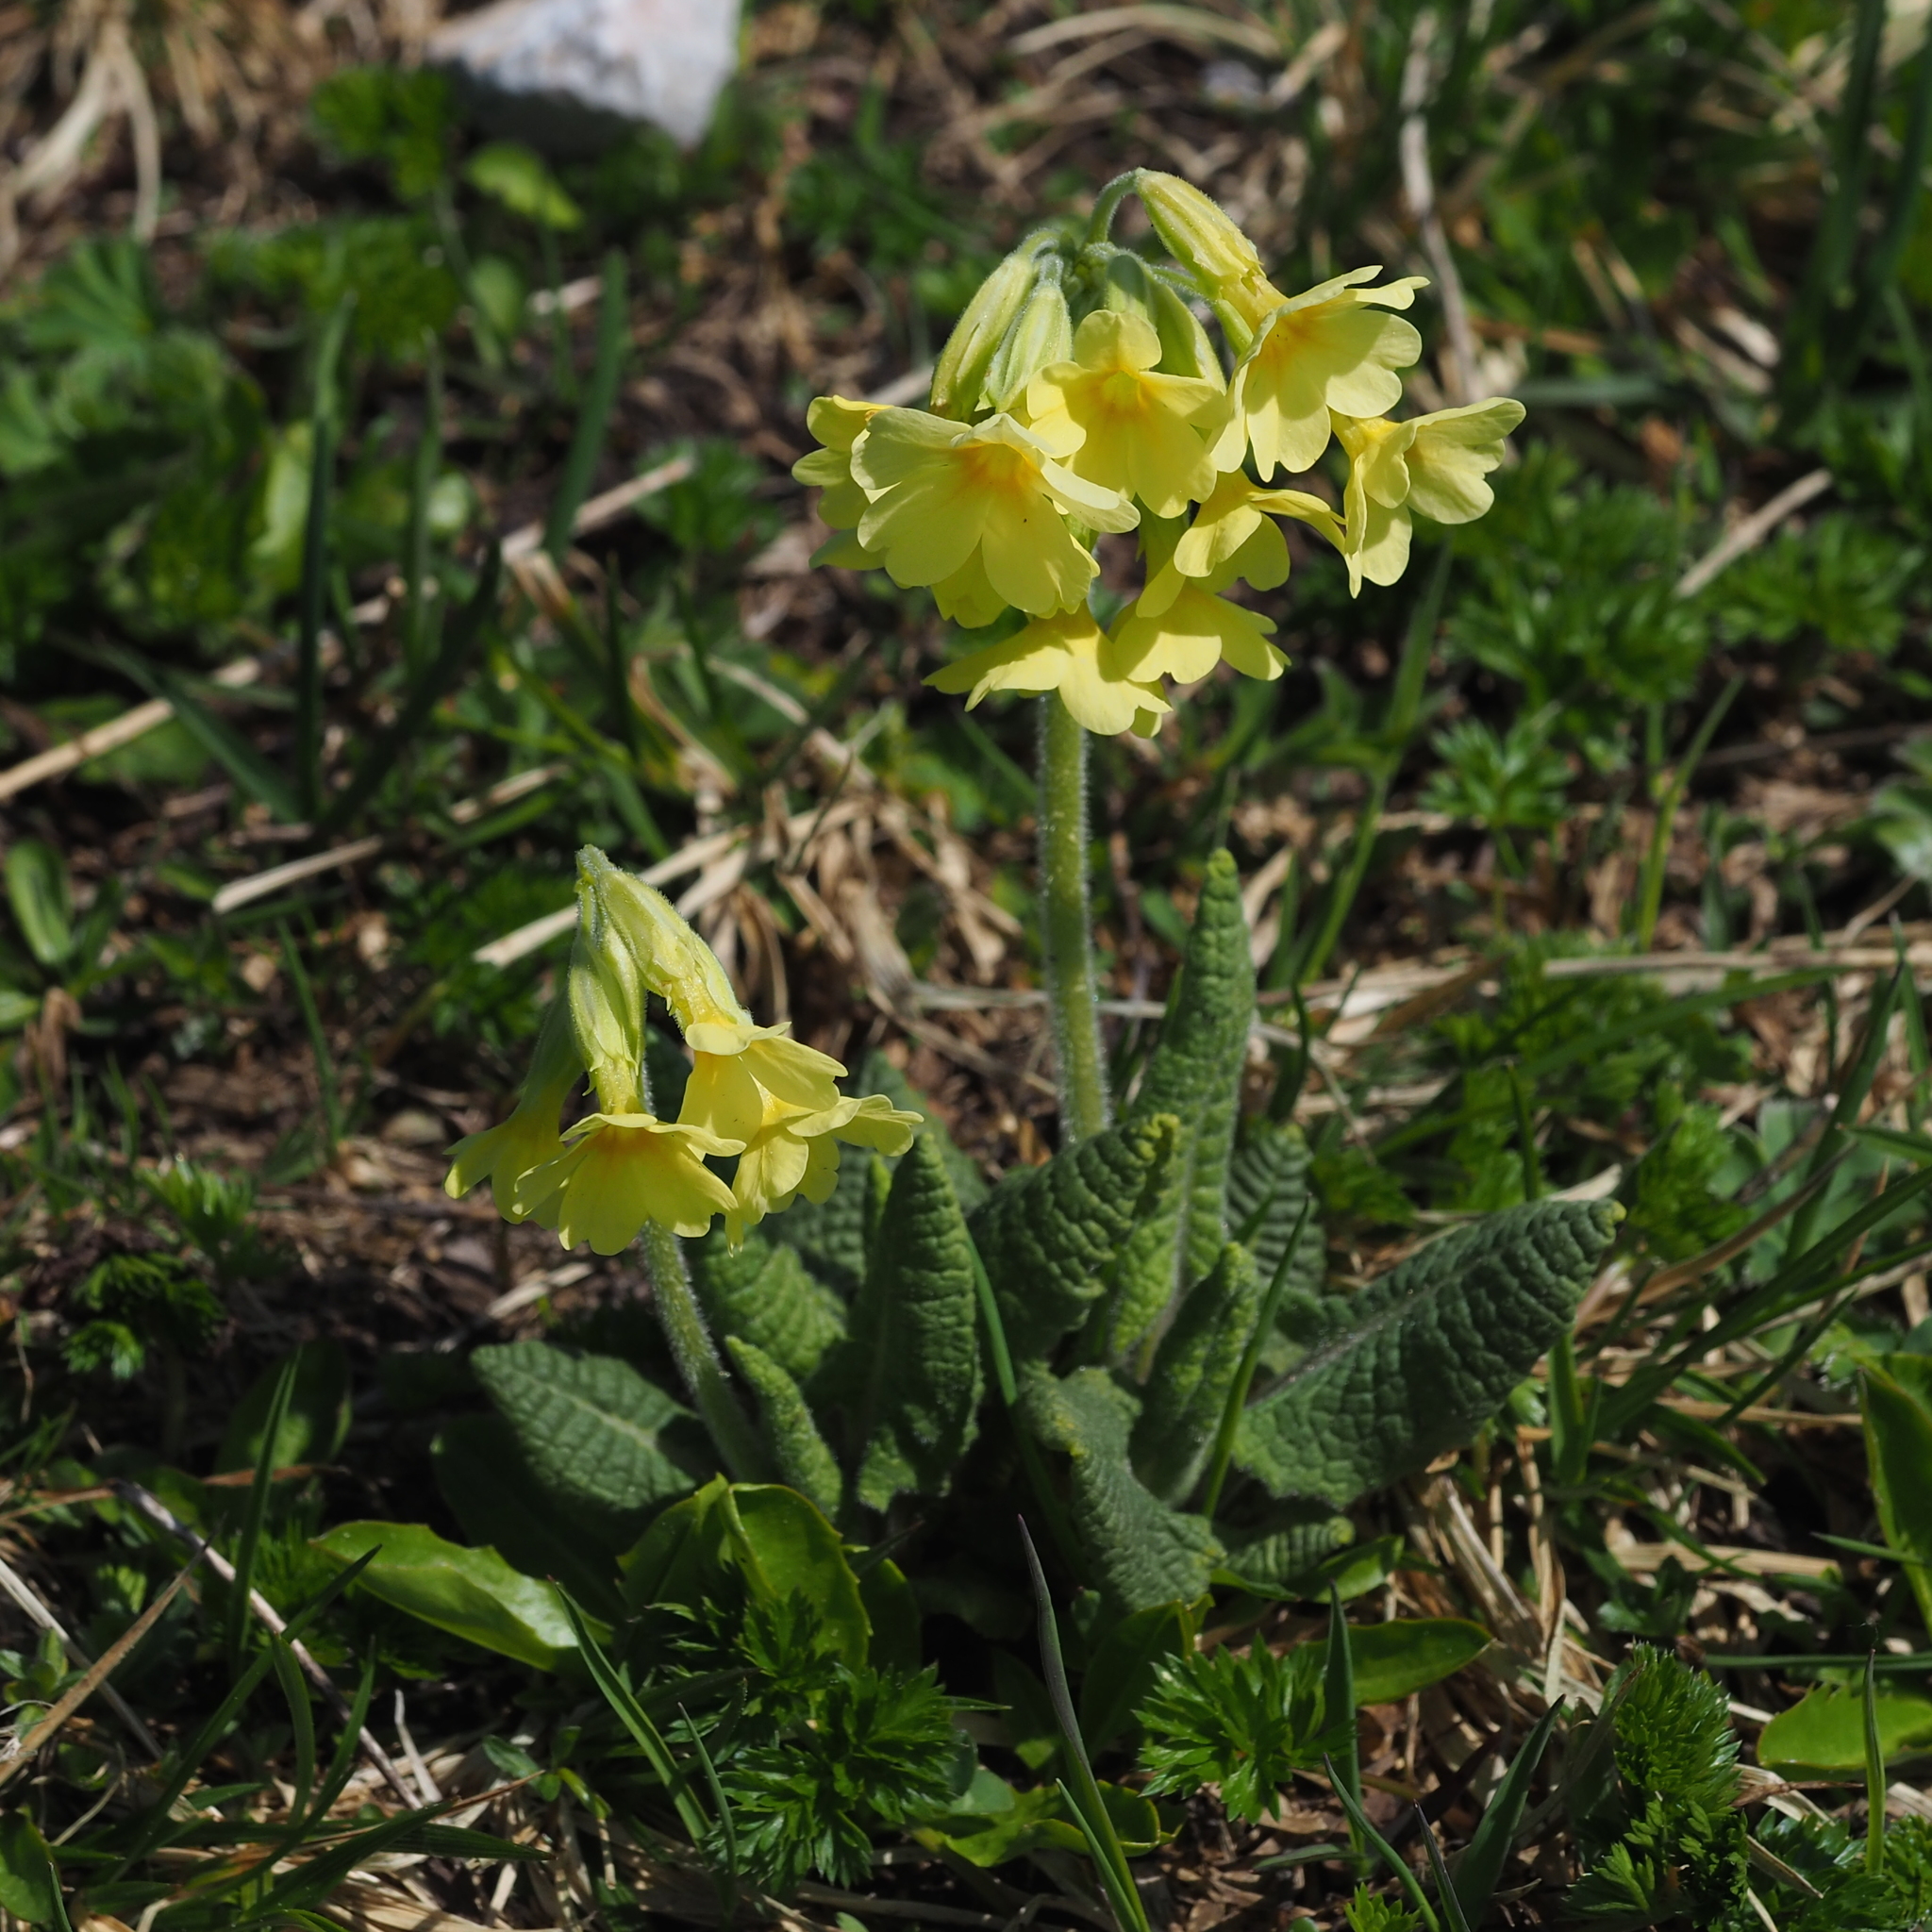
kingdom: Plantae
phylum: Tracheophyta
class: Magnoliopsida
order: Ericales
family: Primulaceae
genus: Primula
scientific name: Primula elatior
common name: Oxlip
